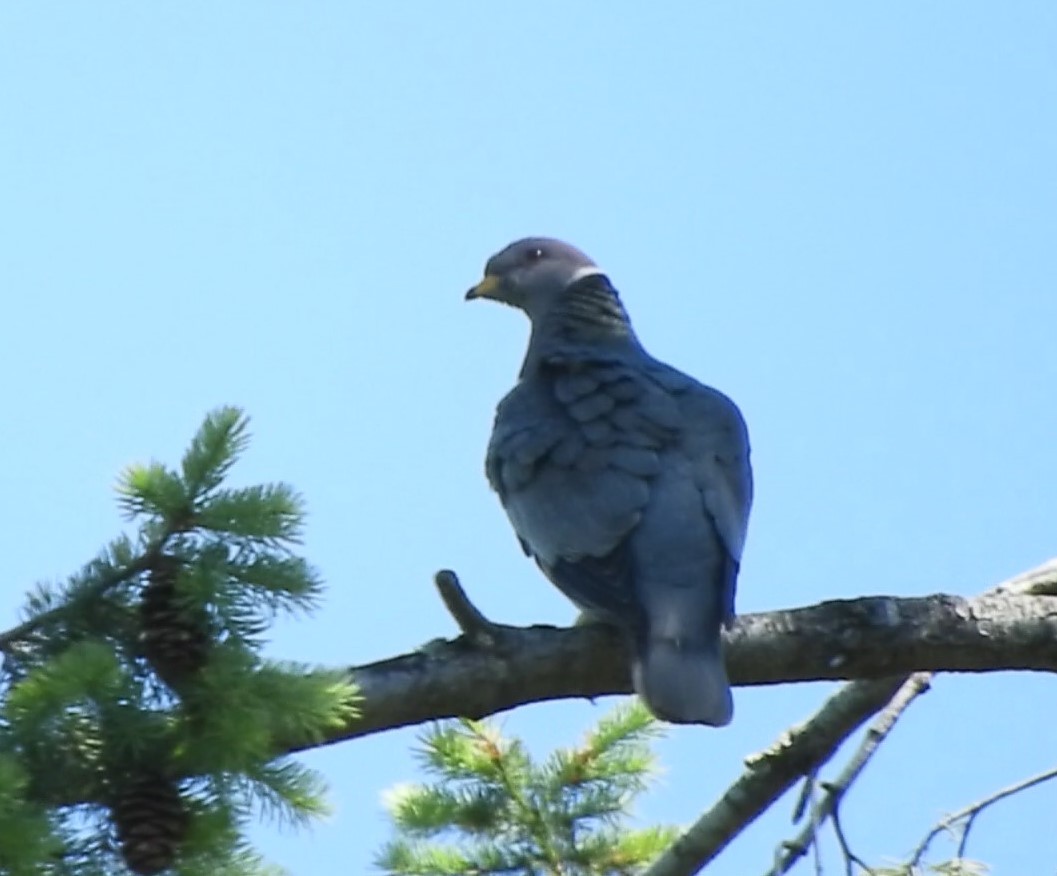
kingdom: Animalia
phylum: Chordata
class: Aves
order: Columbiformes
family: Columbidae
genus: Patagioenas
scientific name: Patagioenas fasciata
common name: Band-tailed pigeon
